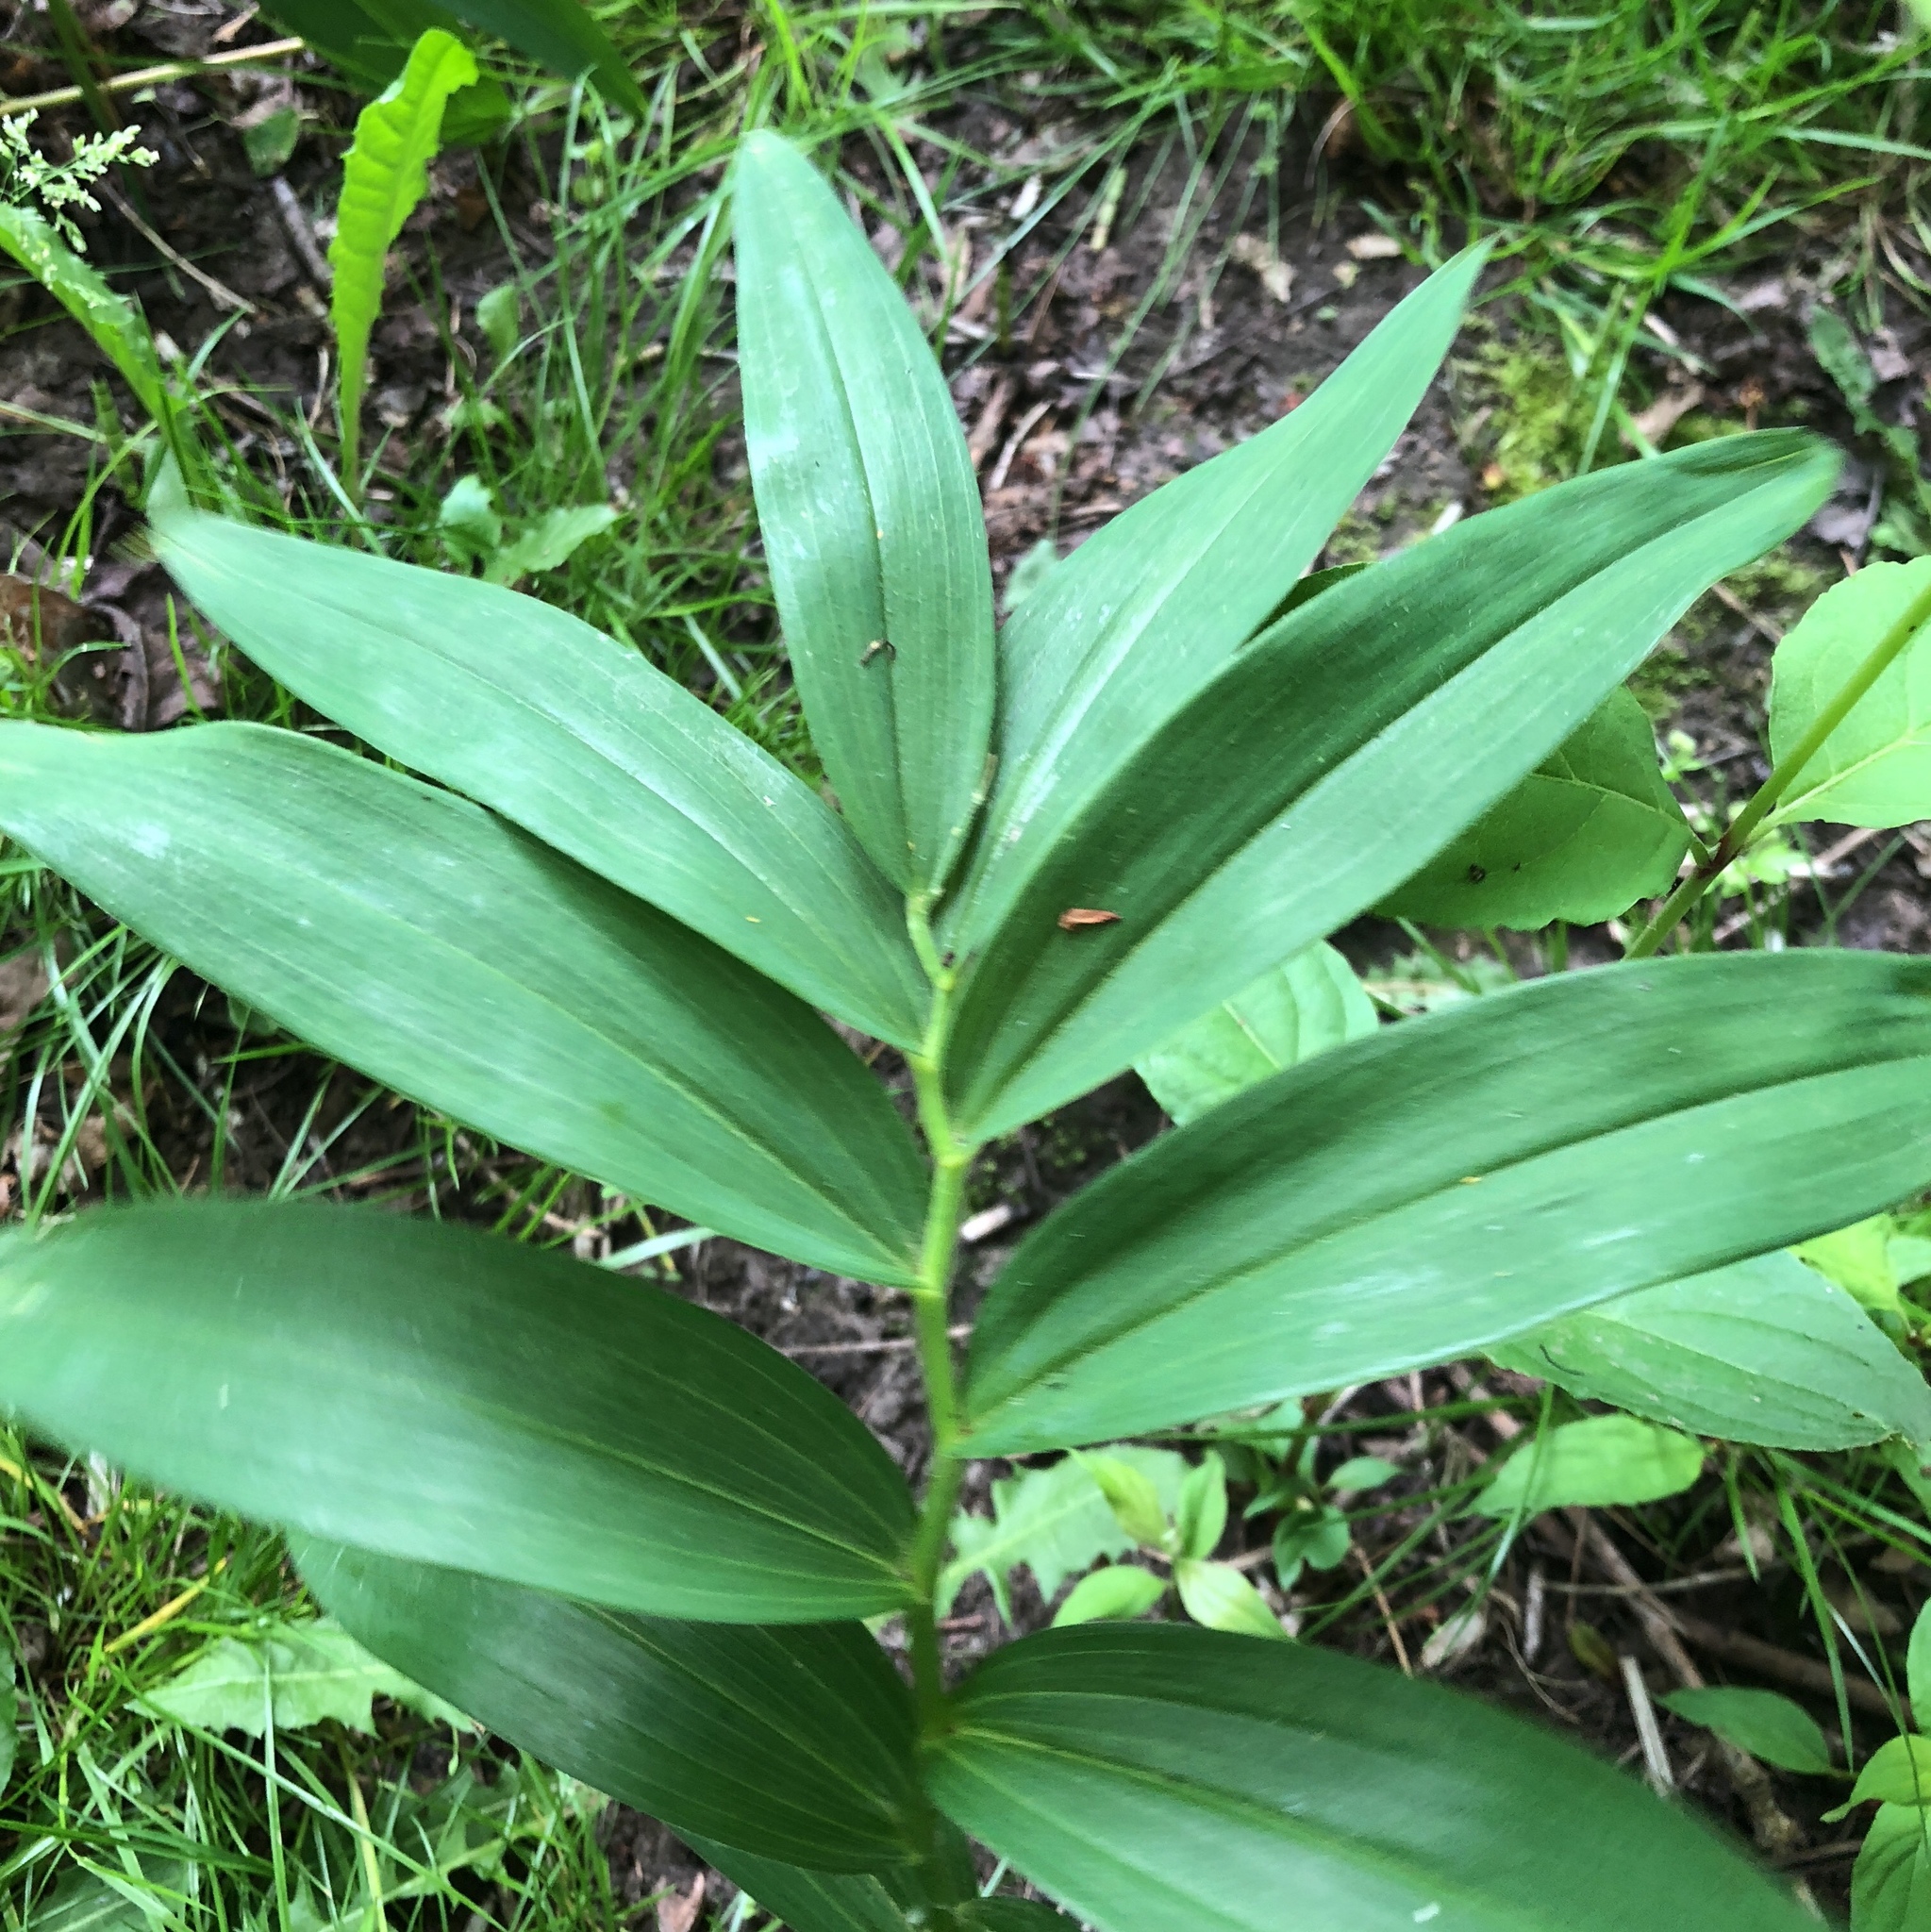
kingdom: Plantae
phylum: Tracheophyta
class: Liliopsida
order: Asparagales
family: Asparagaceae
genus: Maianthemum
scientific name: Maianthemum stellatum
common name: Little false solomon's seal
